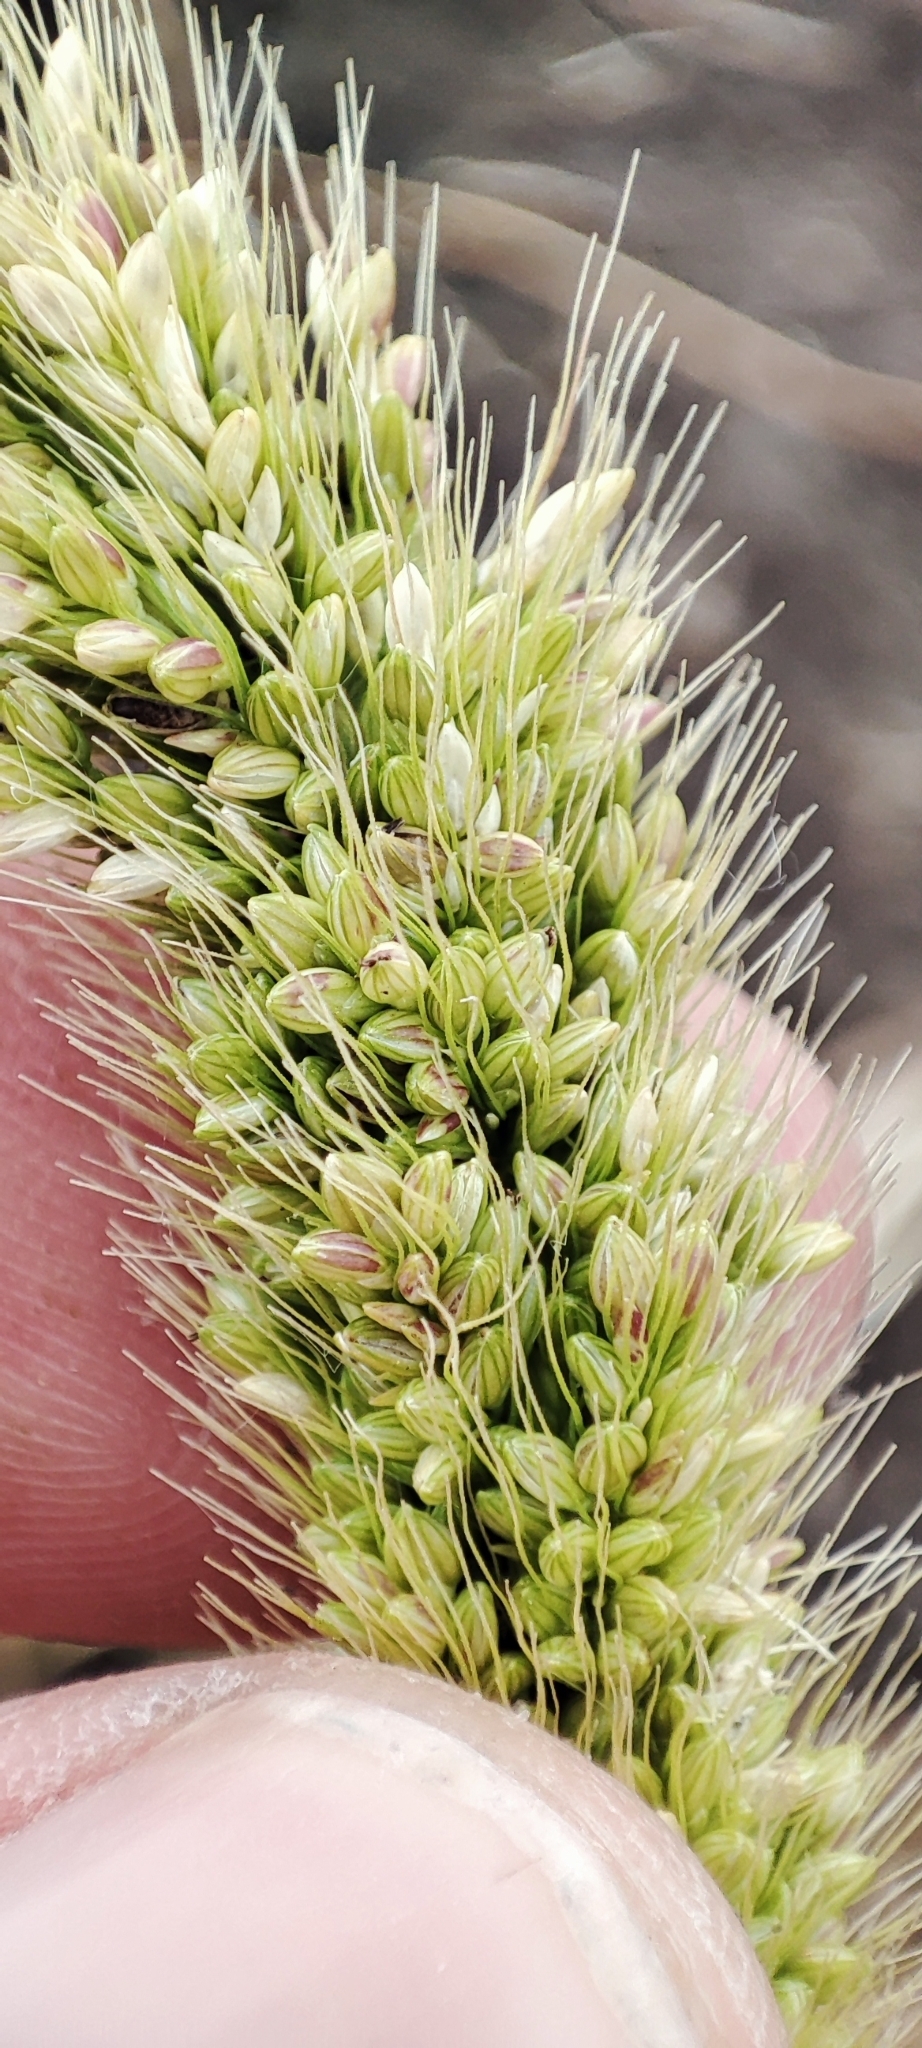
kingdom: Plantae
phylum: Tracheophyta
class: Liliopsida
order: Poales
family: Poaceae
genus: Setaria
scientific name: Setaria viridis
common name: Green bristlegrass
